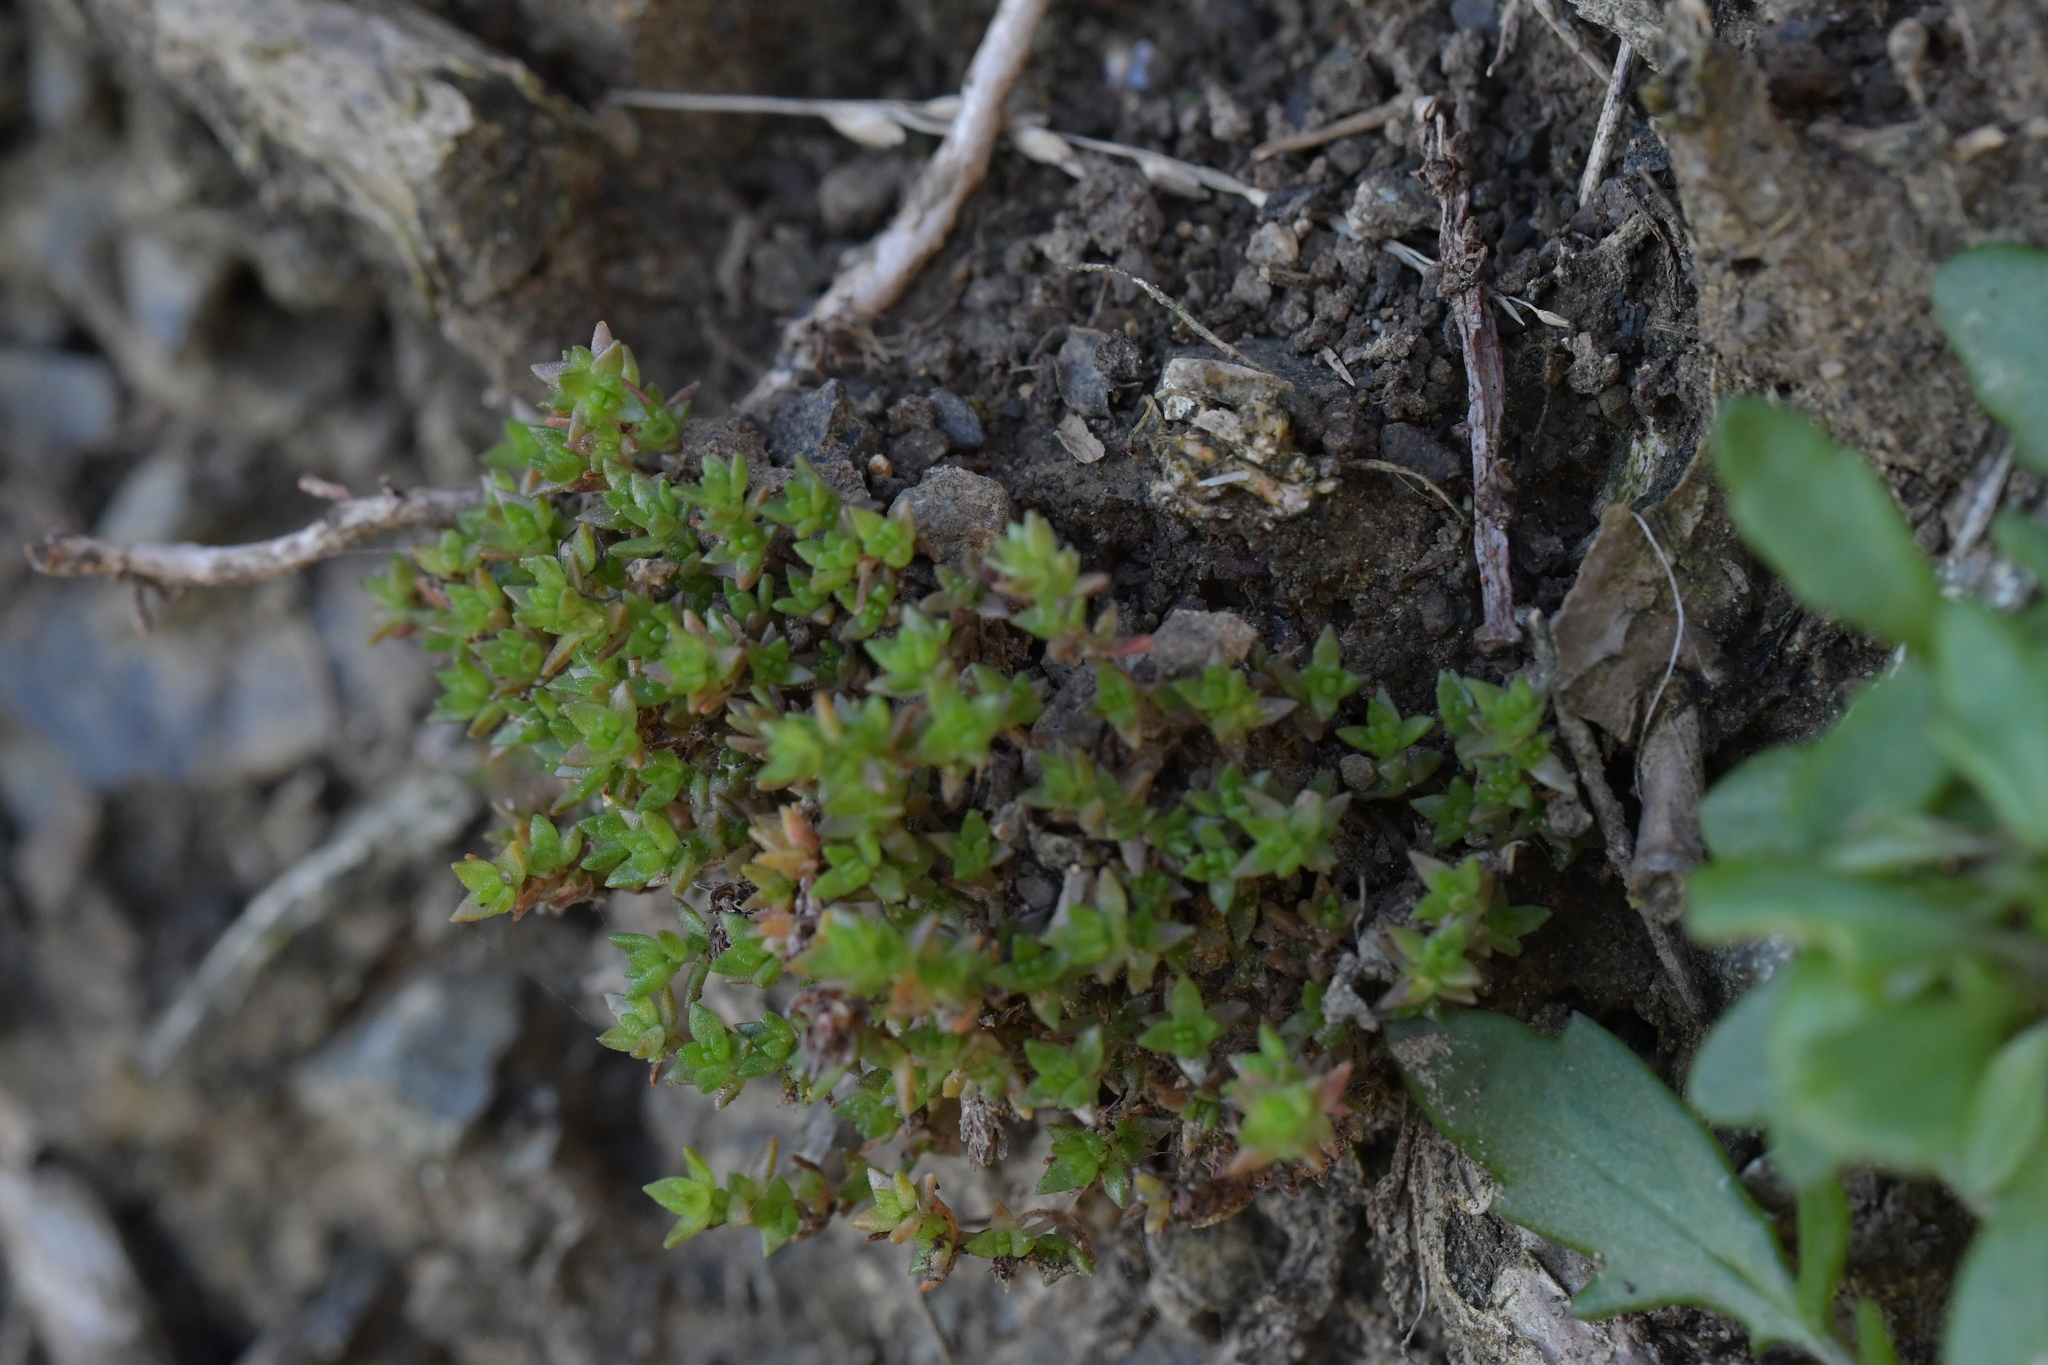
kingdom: Plantae
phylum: Tracheophyta
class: Magnoliopsida
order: Saxifragales
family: Crassulaceae
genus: Crassula
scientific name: Crassula sieberiana
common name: Siberian pygmyweed
